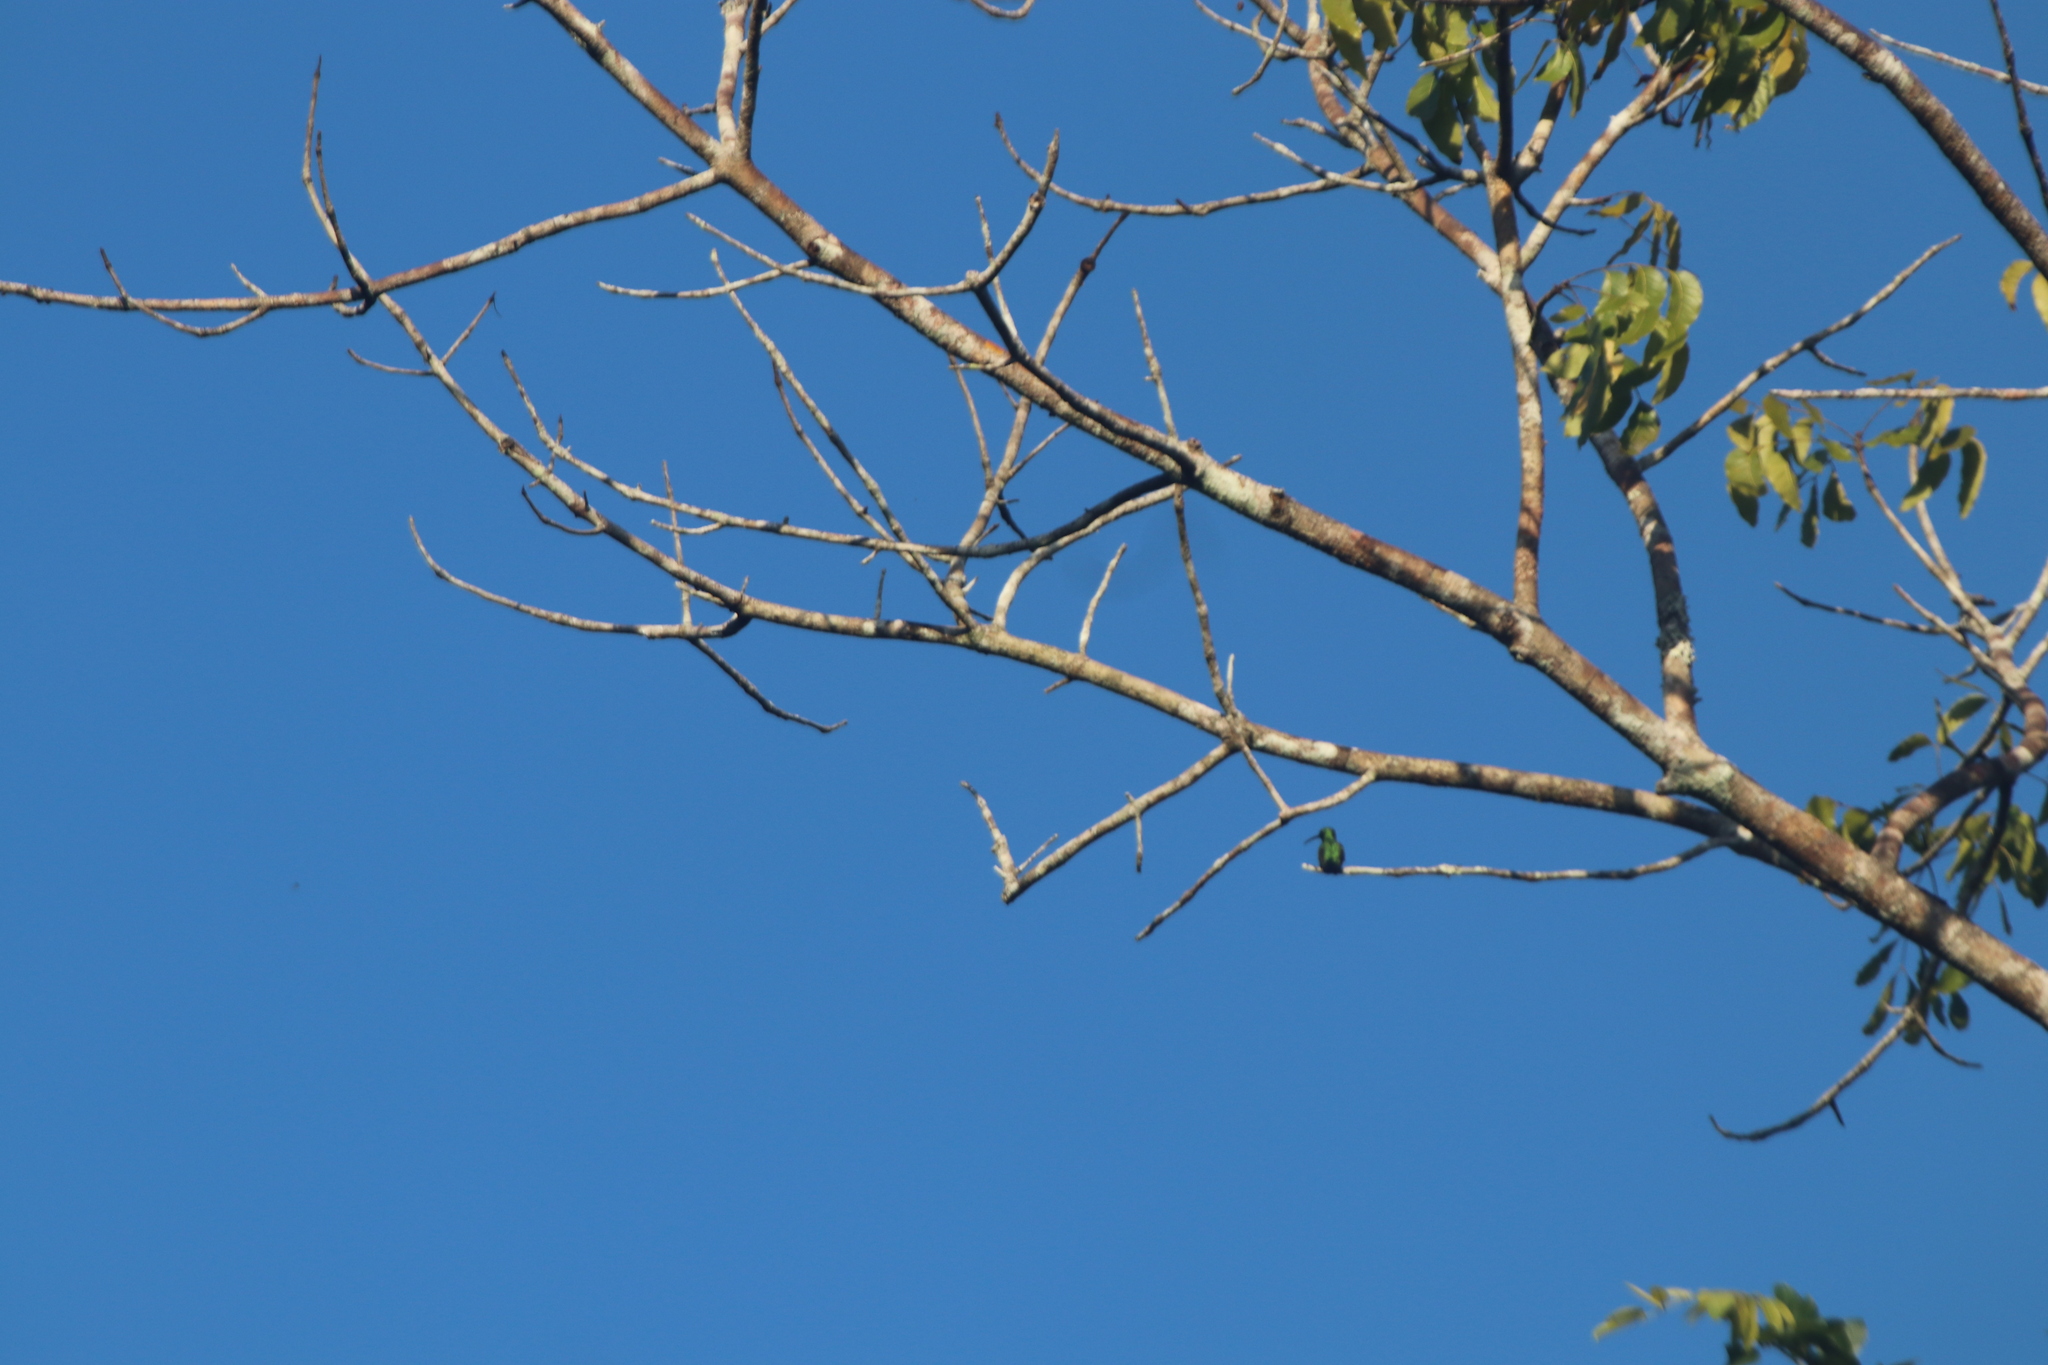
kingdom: Animalia
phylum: Chordata
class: Aves
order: Apodiformes
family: Trochilidae
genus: Anthracothorax
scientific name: Anthracothorax prevostii
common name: Green-breasted mango
